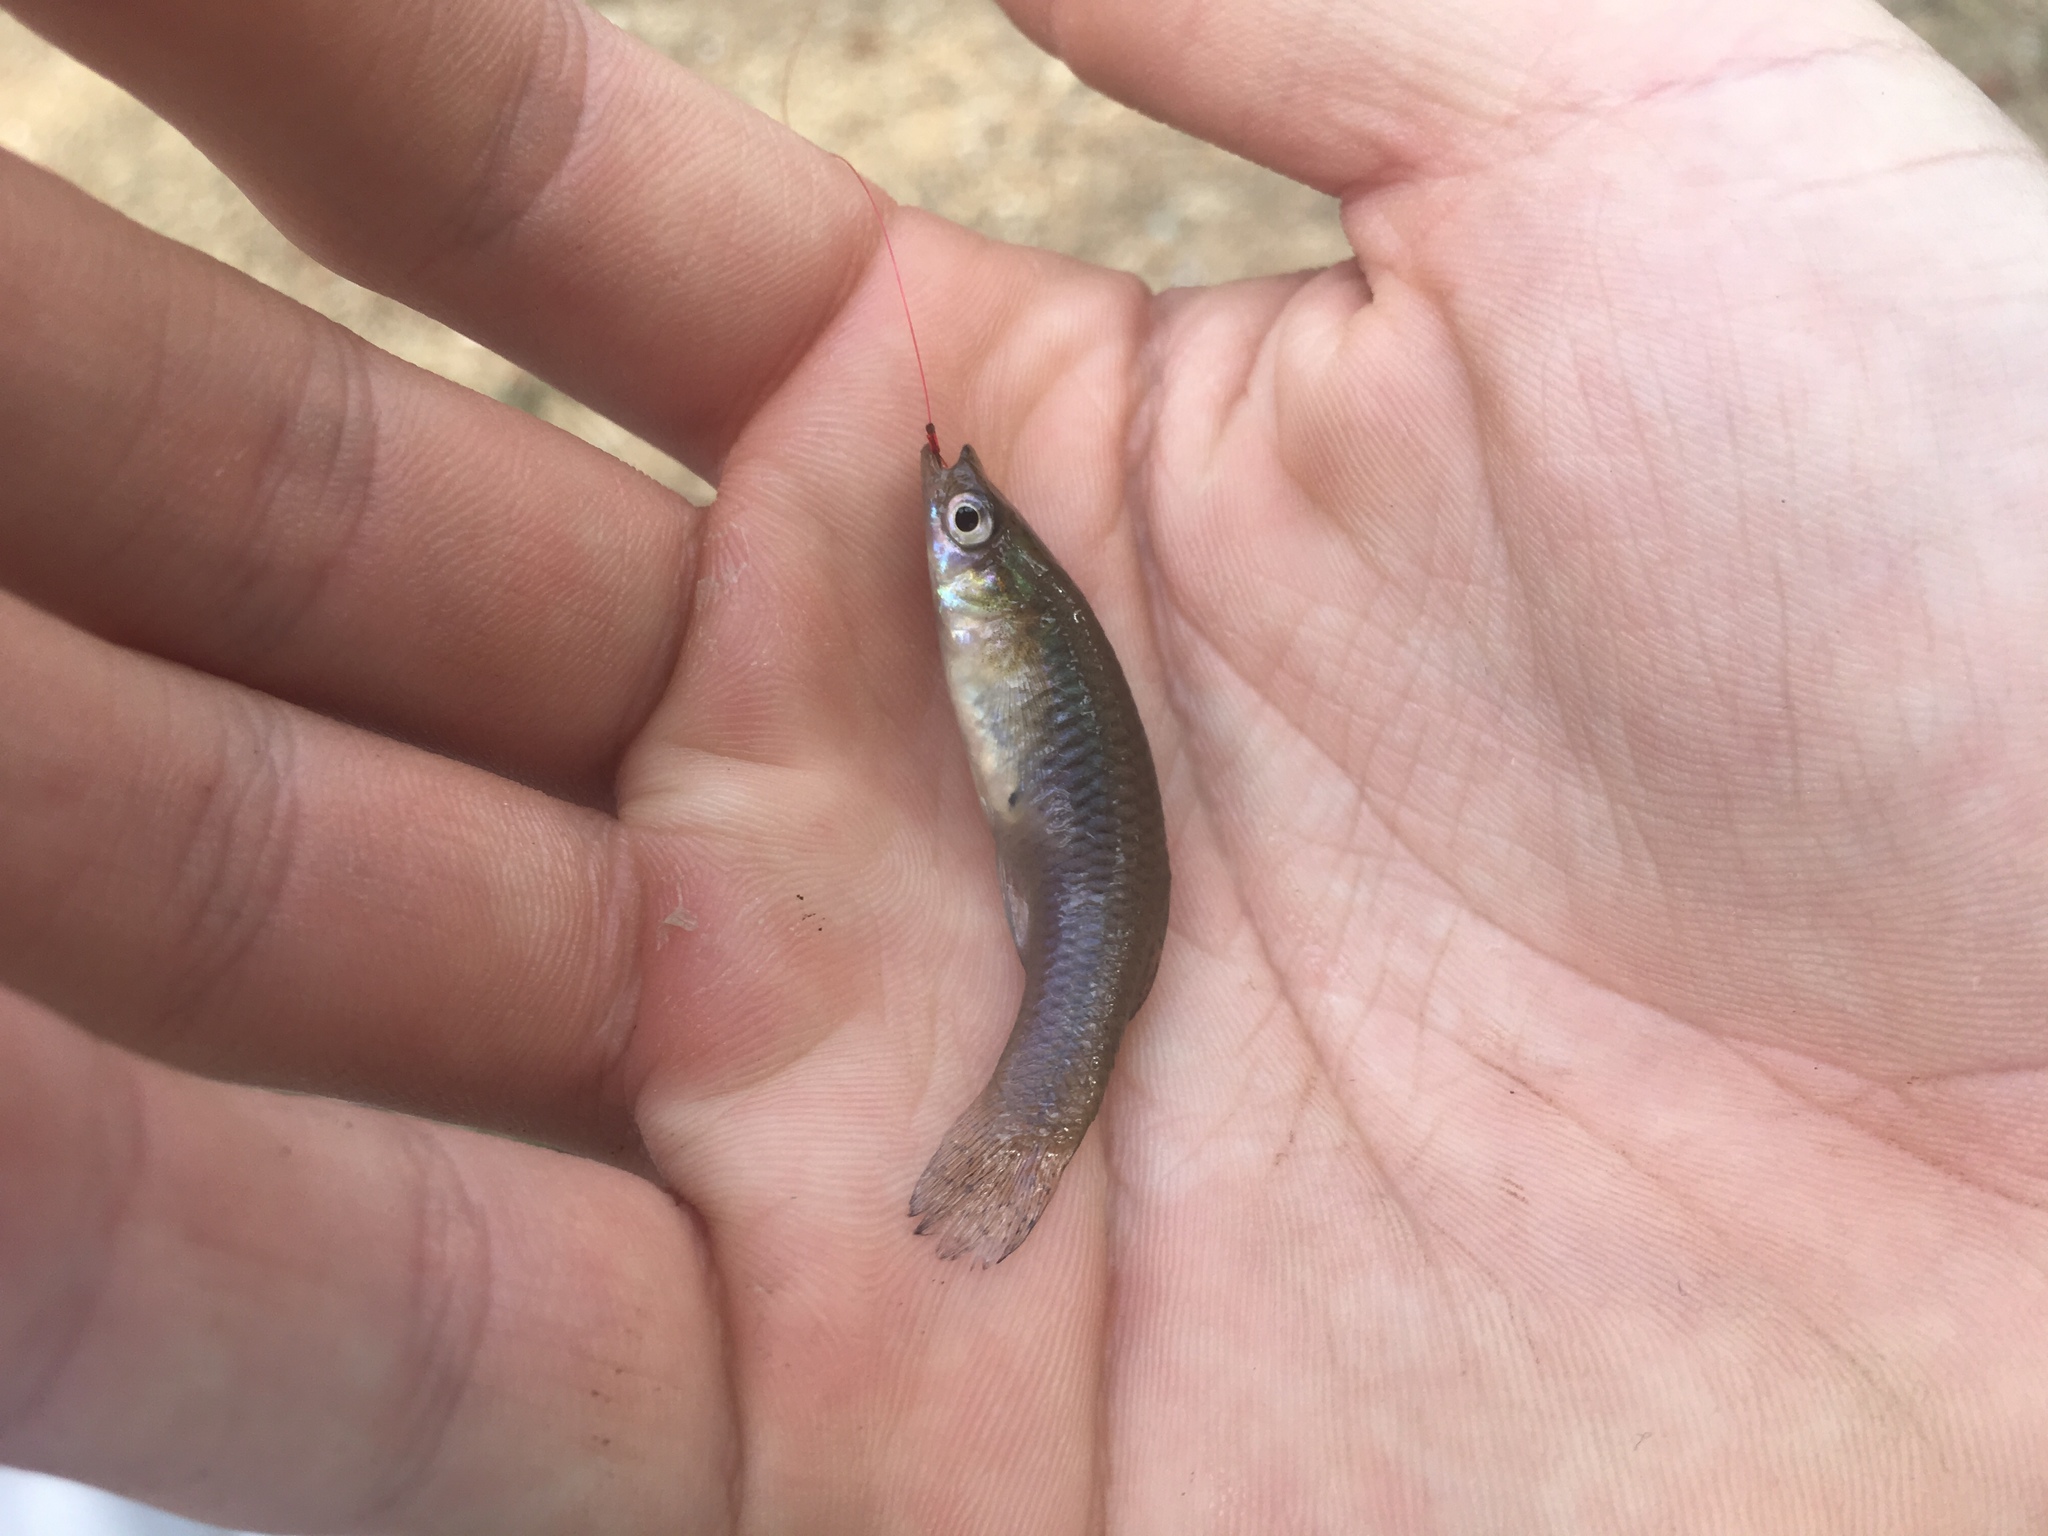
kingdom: Animalia
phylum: Chordata
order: Cyprinodontiformes
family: Poeciliidae
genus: Gambusia
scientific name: Gambusia holbrooki
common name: Eastern mosquitofish
